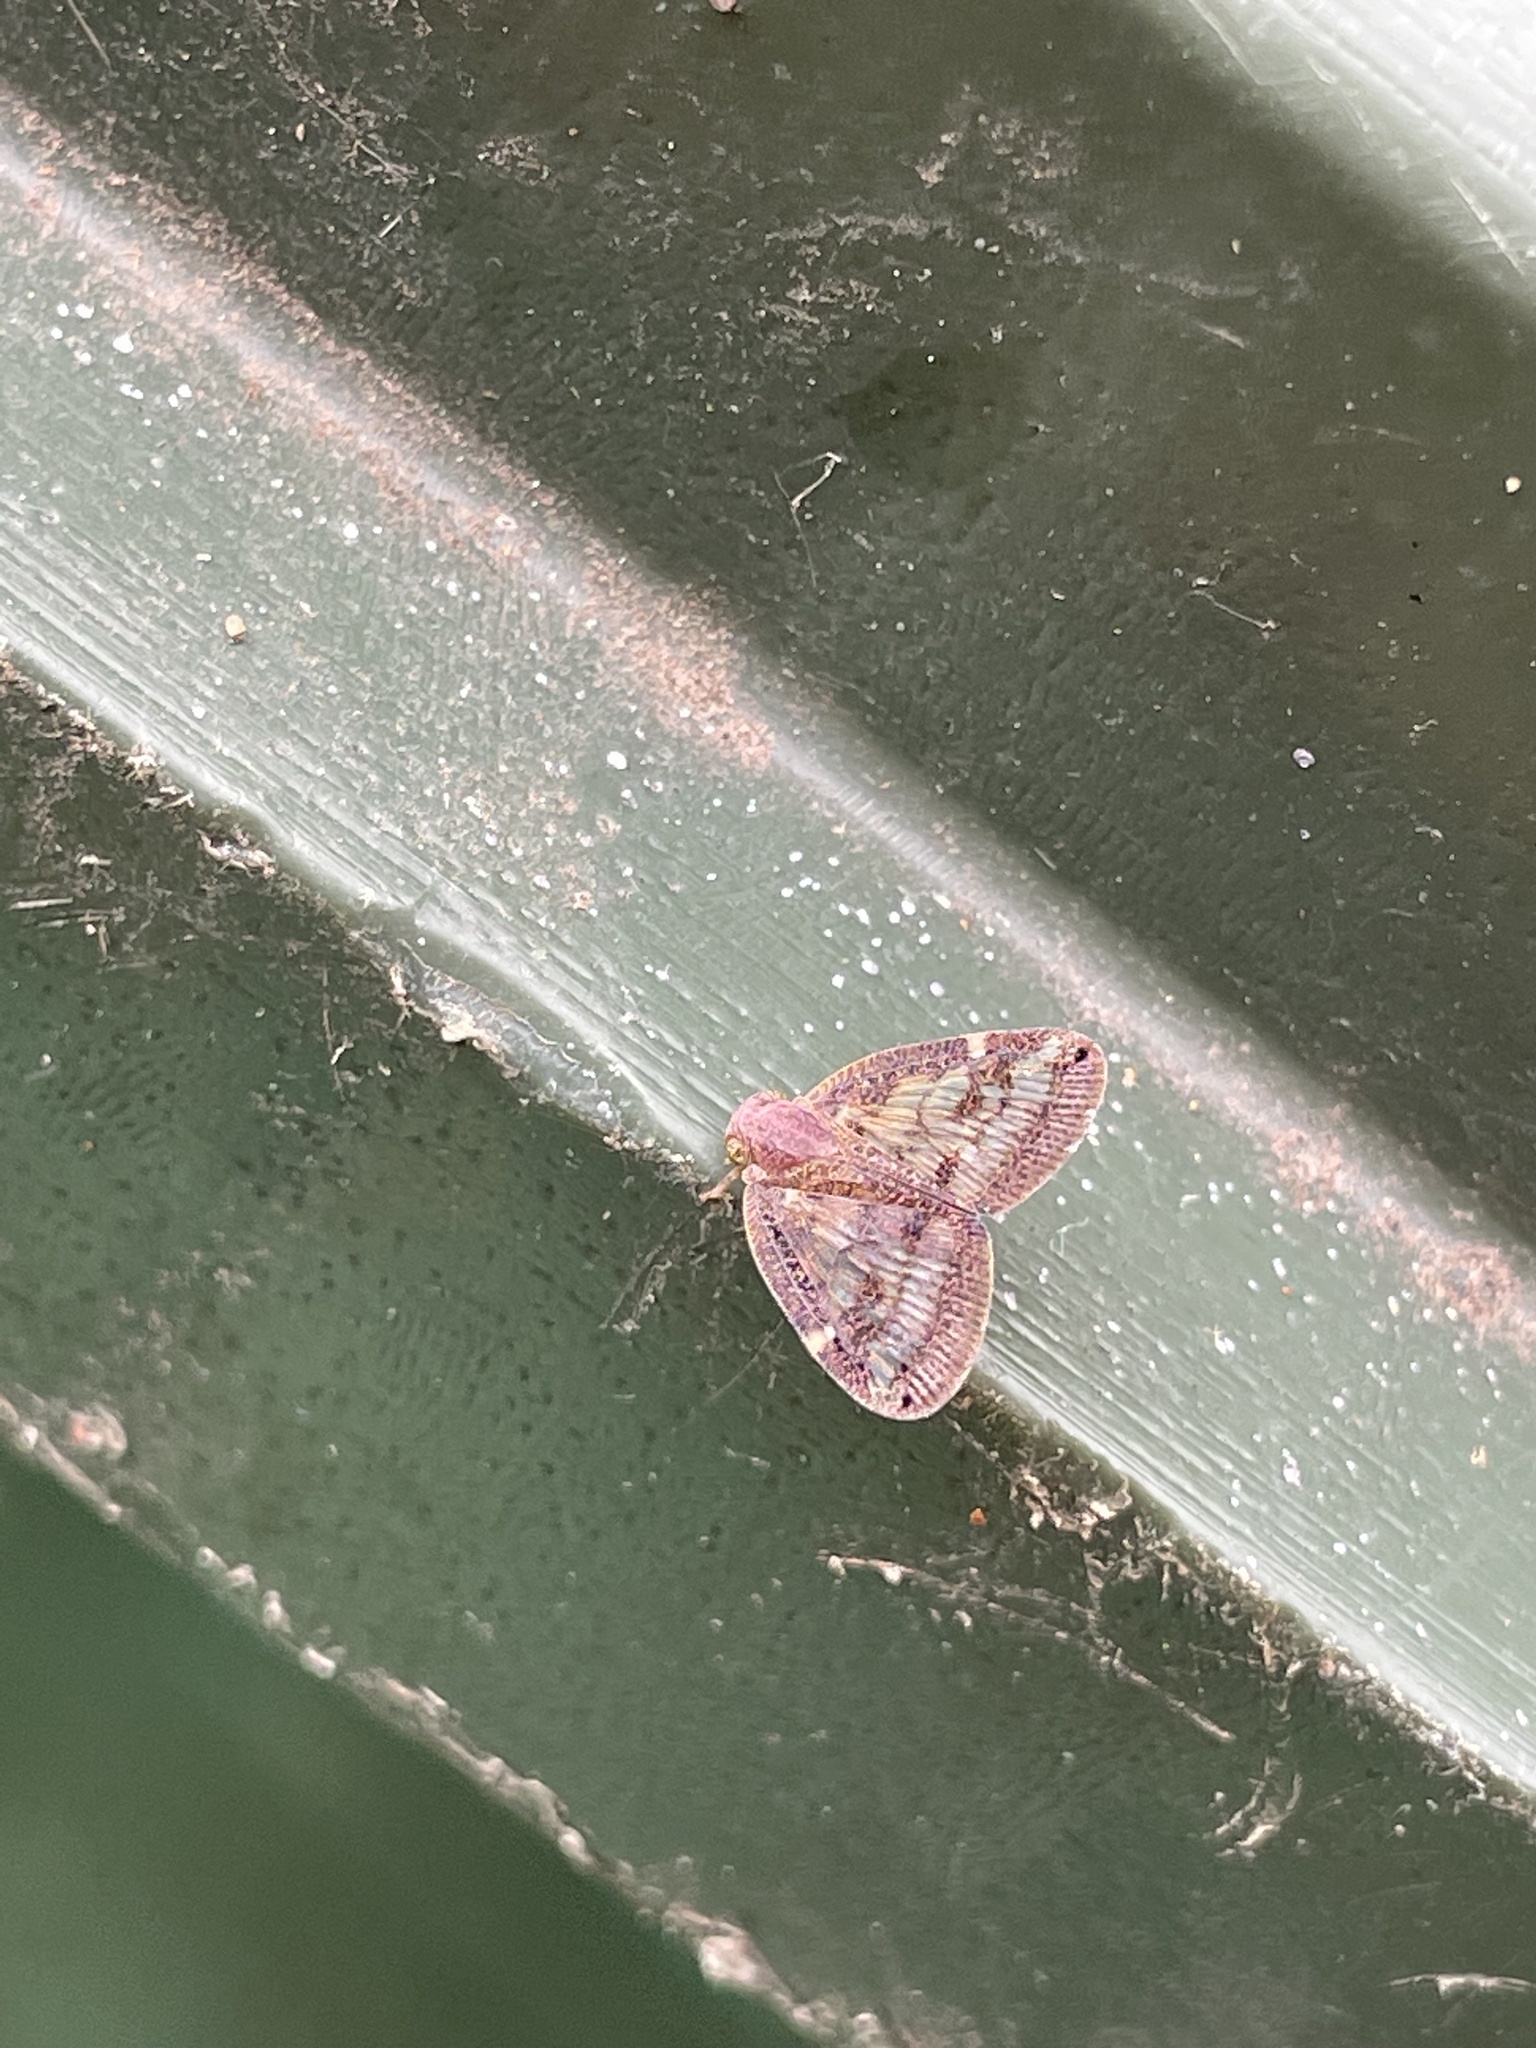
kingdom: Animalia
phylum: Arthropoda
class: Insecta
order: Hemiptera
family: Ricaniidae
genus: Scolypopa
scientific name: Scolypopa australis
